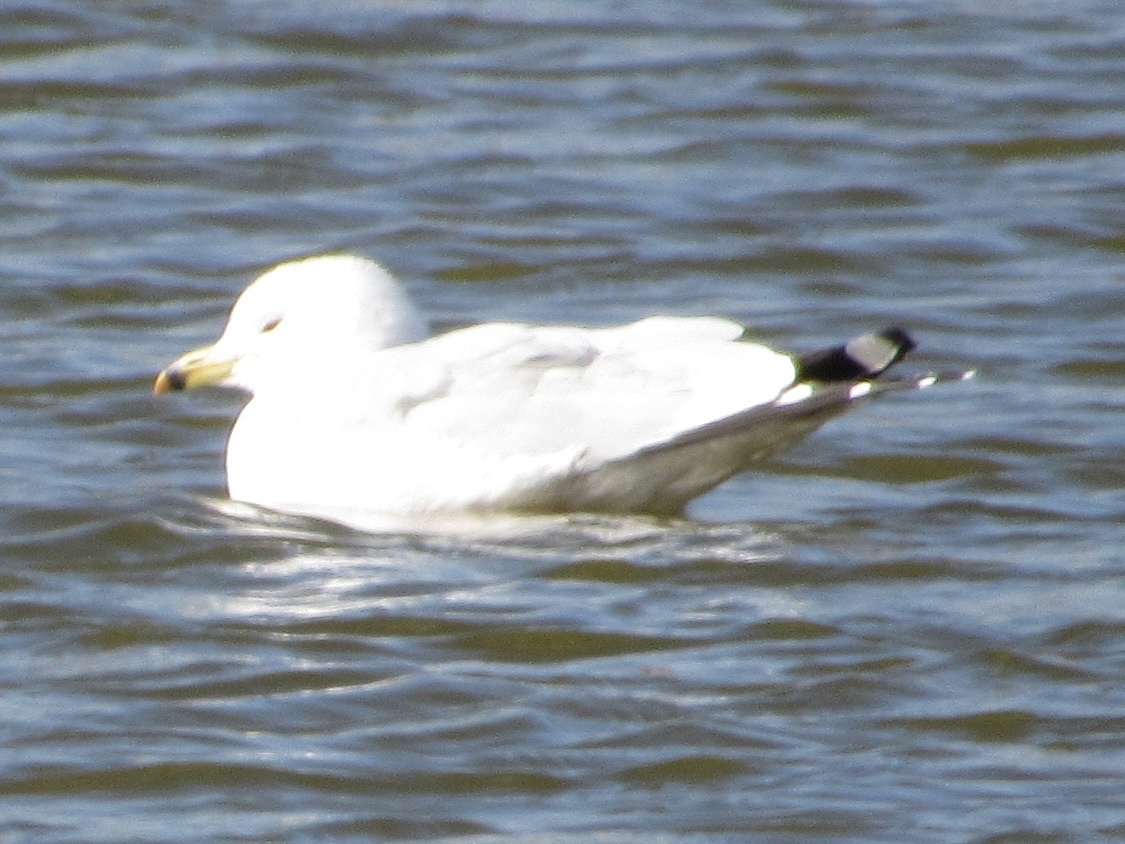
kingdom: Animalia
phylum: Chordata
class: Aves
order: Charadriiformes
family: Laridae
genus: Larus
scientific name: Larus delawarensis
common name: Ring-billed gull
